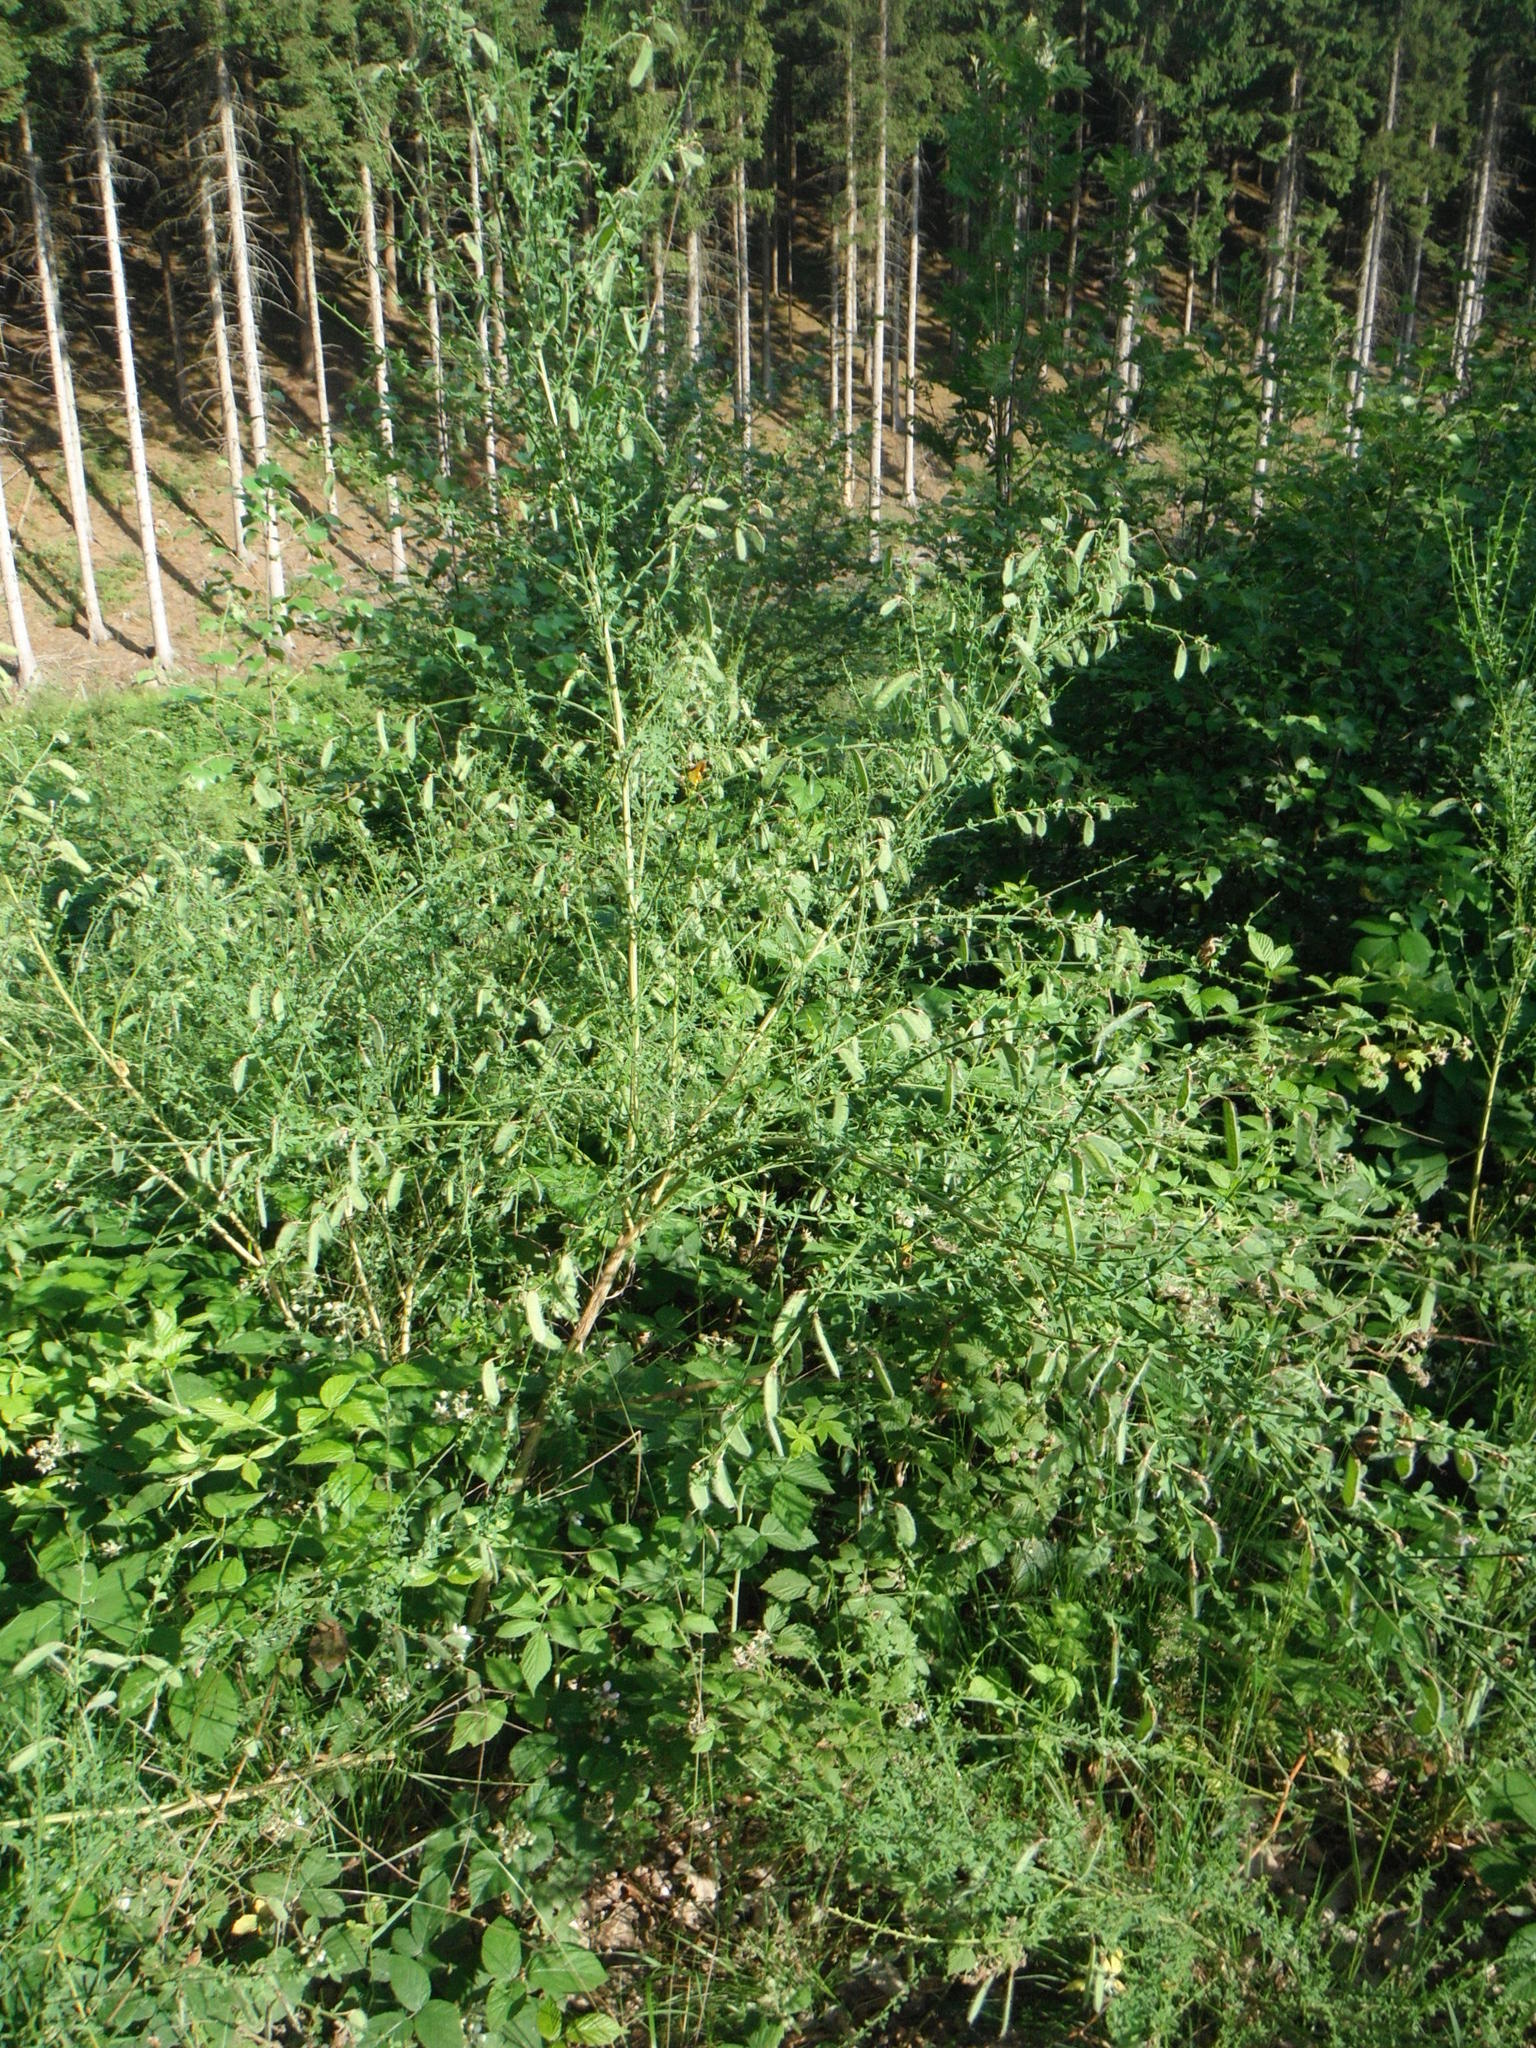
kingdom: Plantae
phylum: Tracheophyta
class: Magnoliopsida
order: Fabales
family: Fabaceae
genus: Cytisus
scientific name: Cytisus scoparius
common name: Scotch broom
